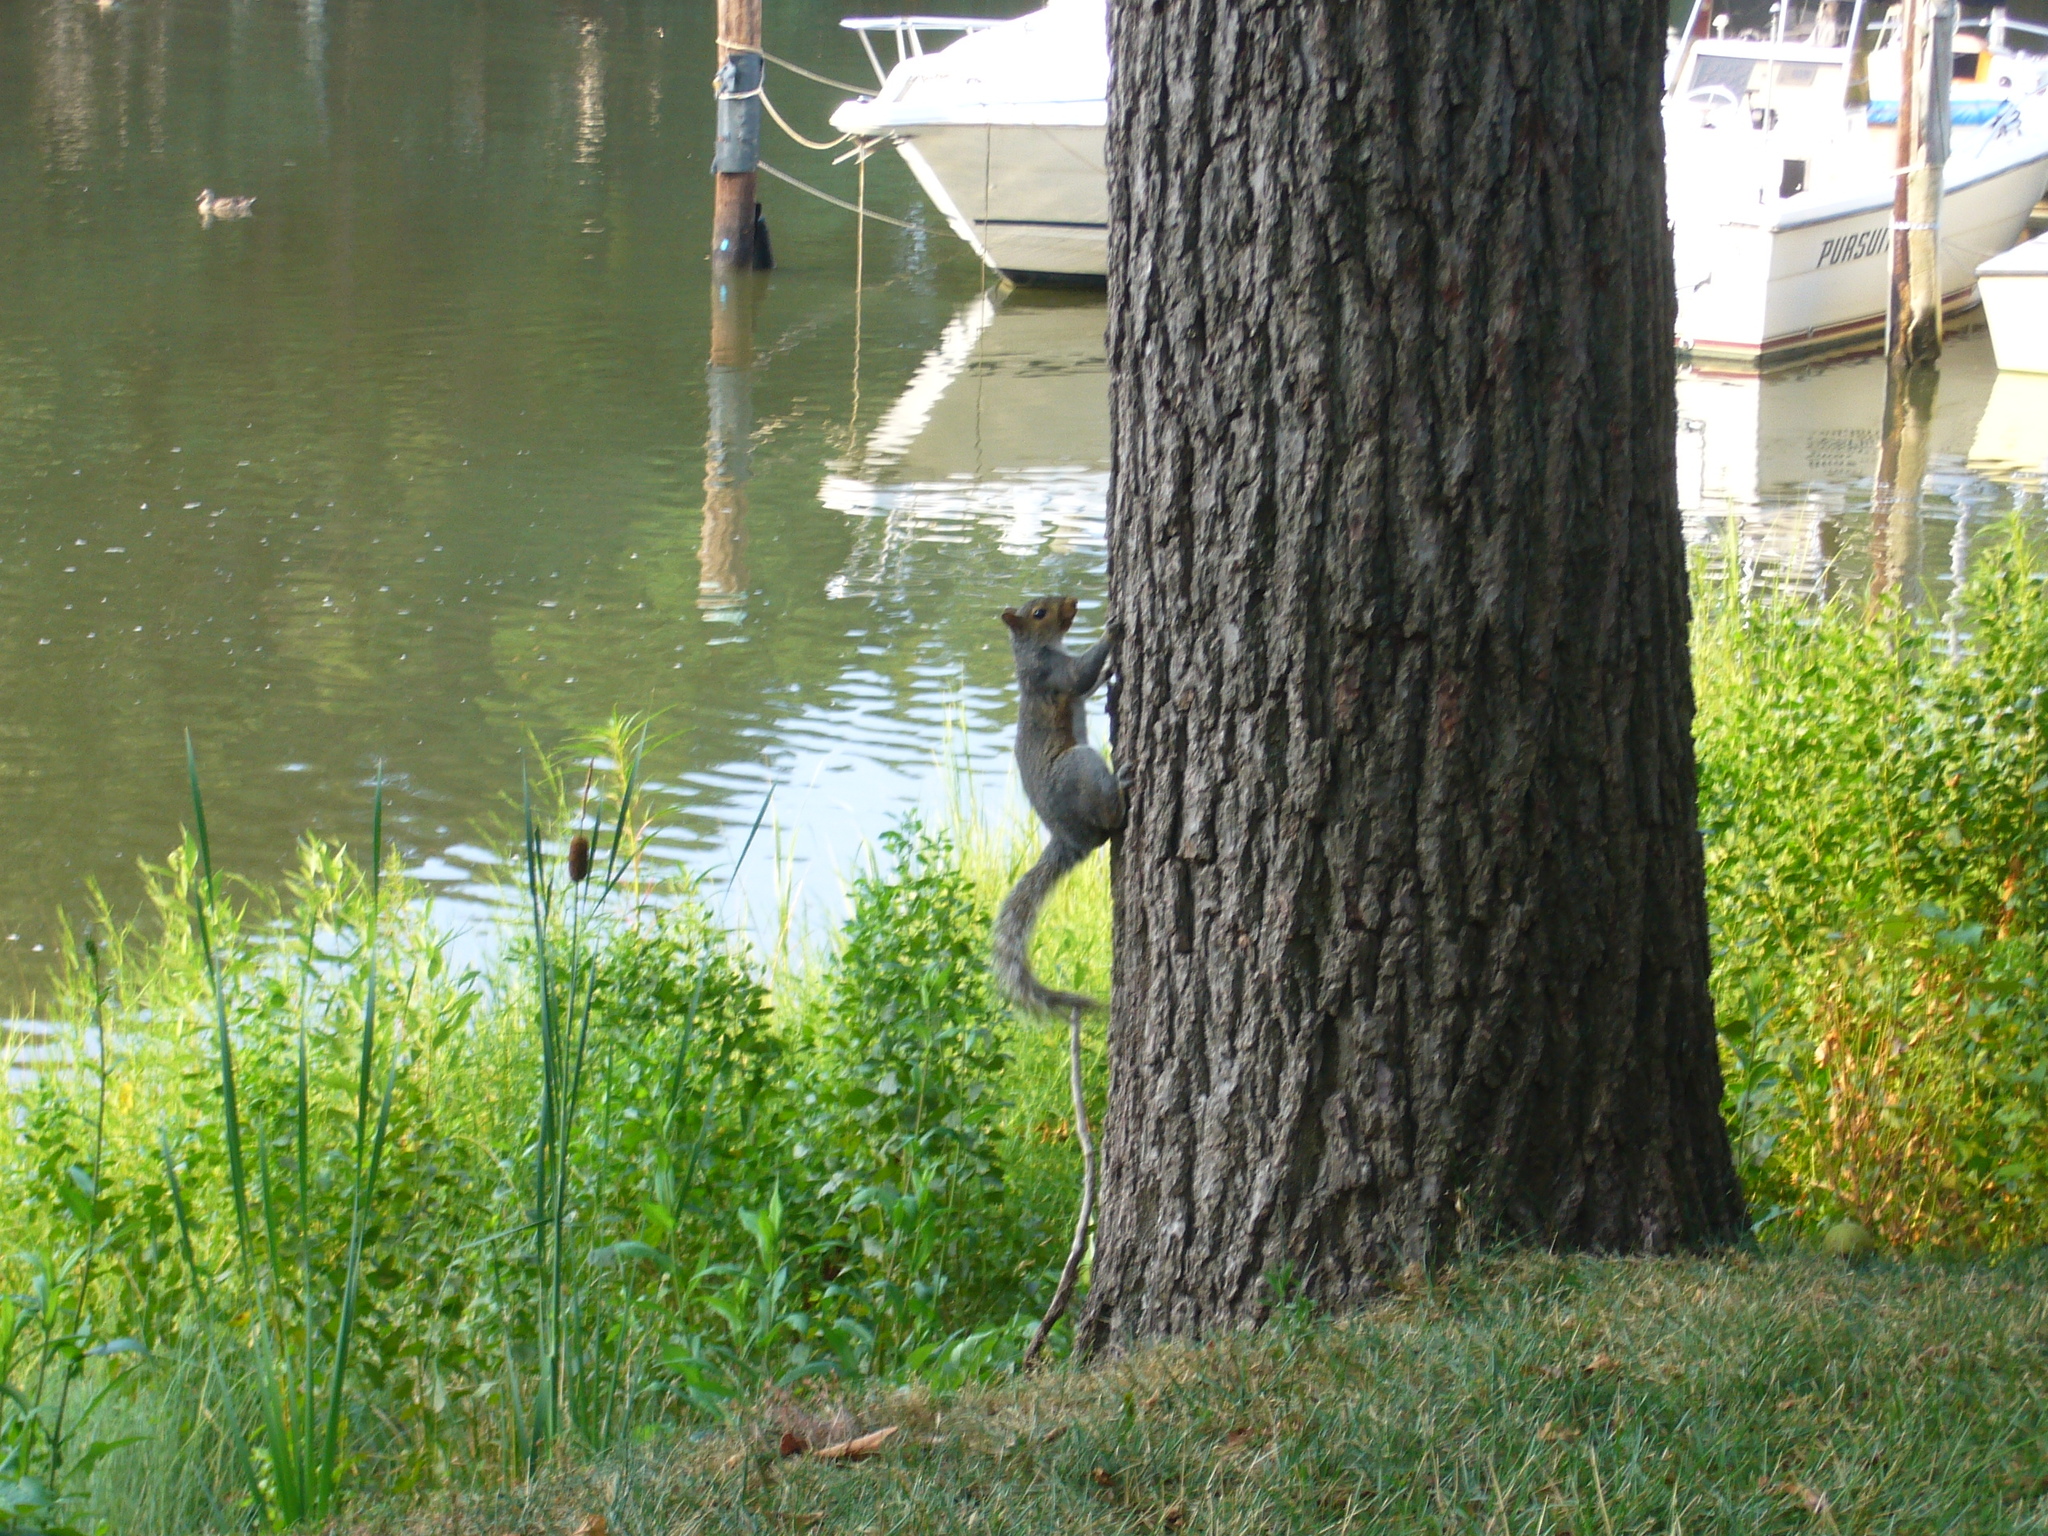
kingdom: Animalia
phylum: Chordata
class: Mammalia
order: Rodentia
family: Sciuridae
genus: Sciurus
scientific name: Sciurus carolinensis
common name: Eastern gray squirrel
